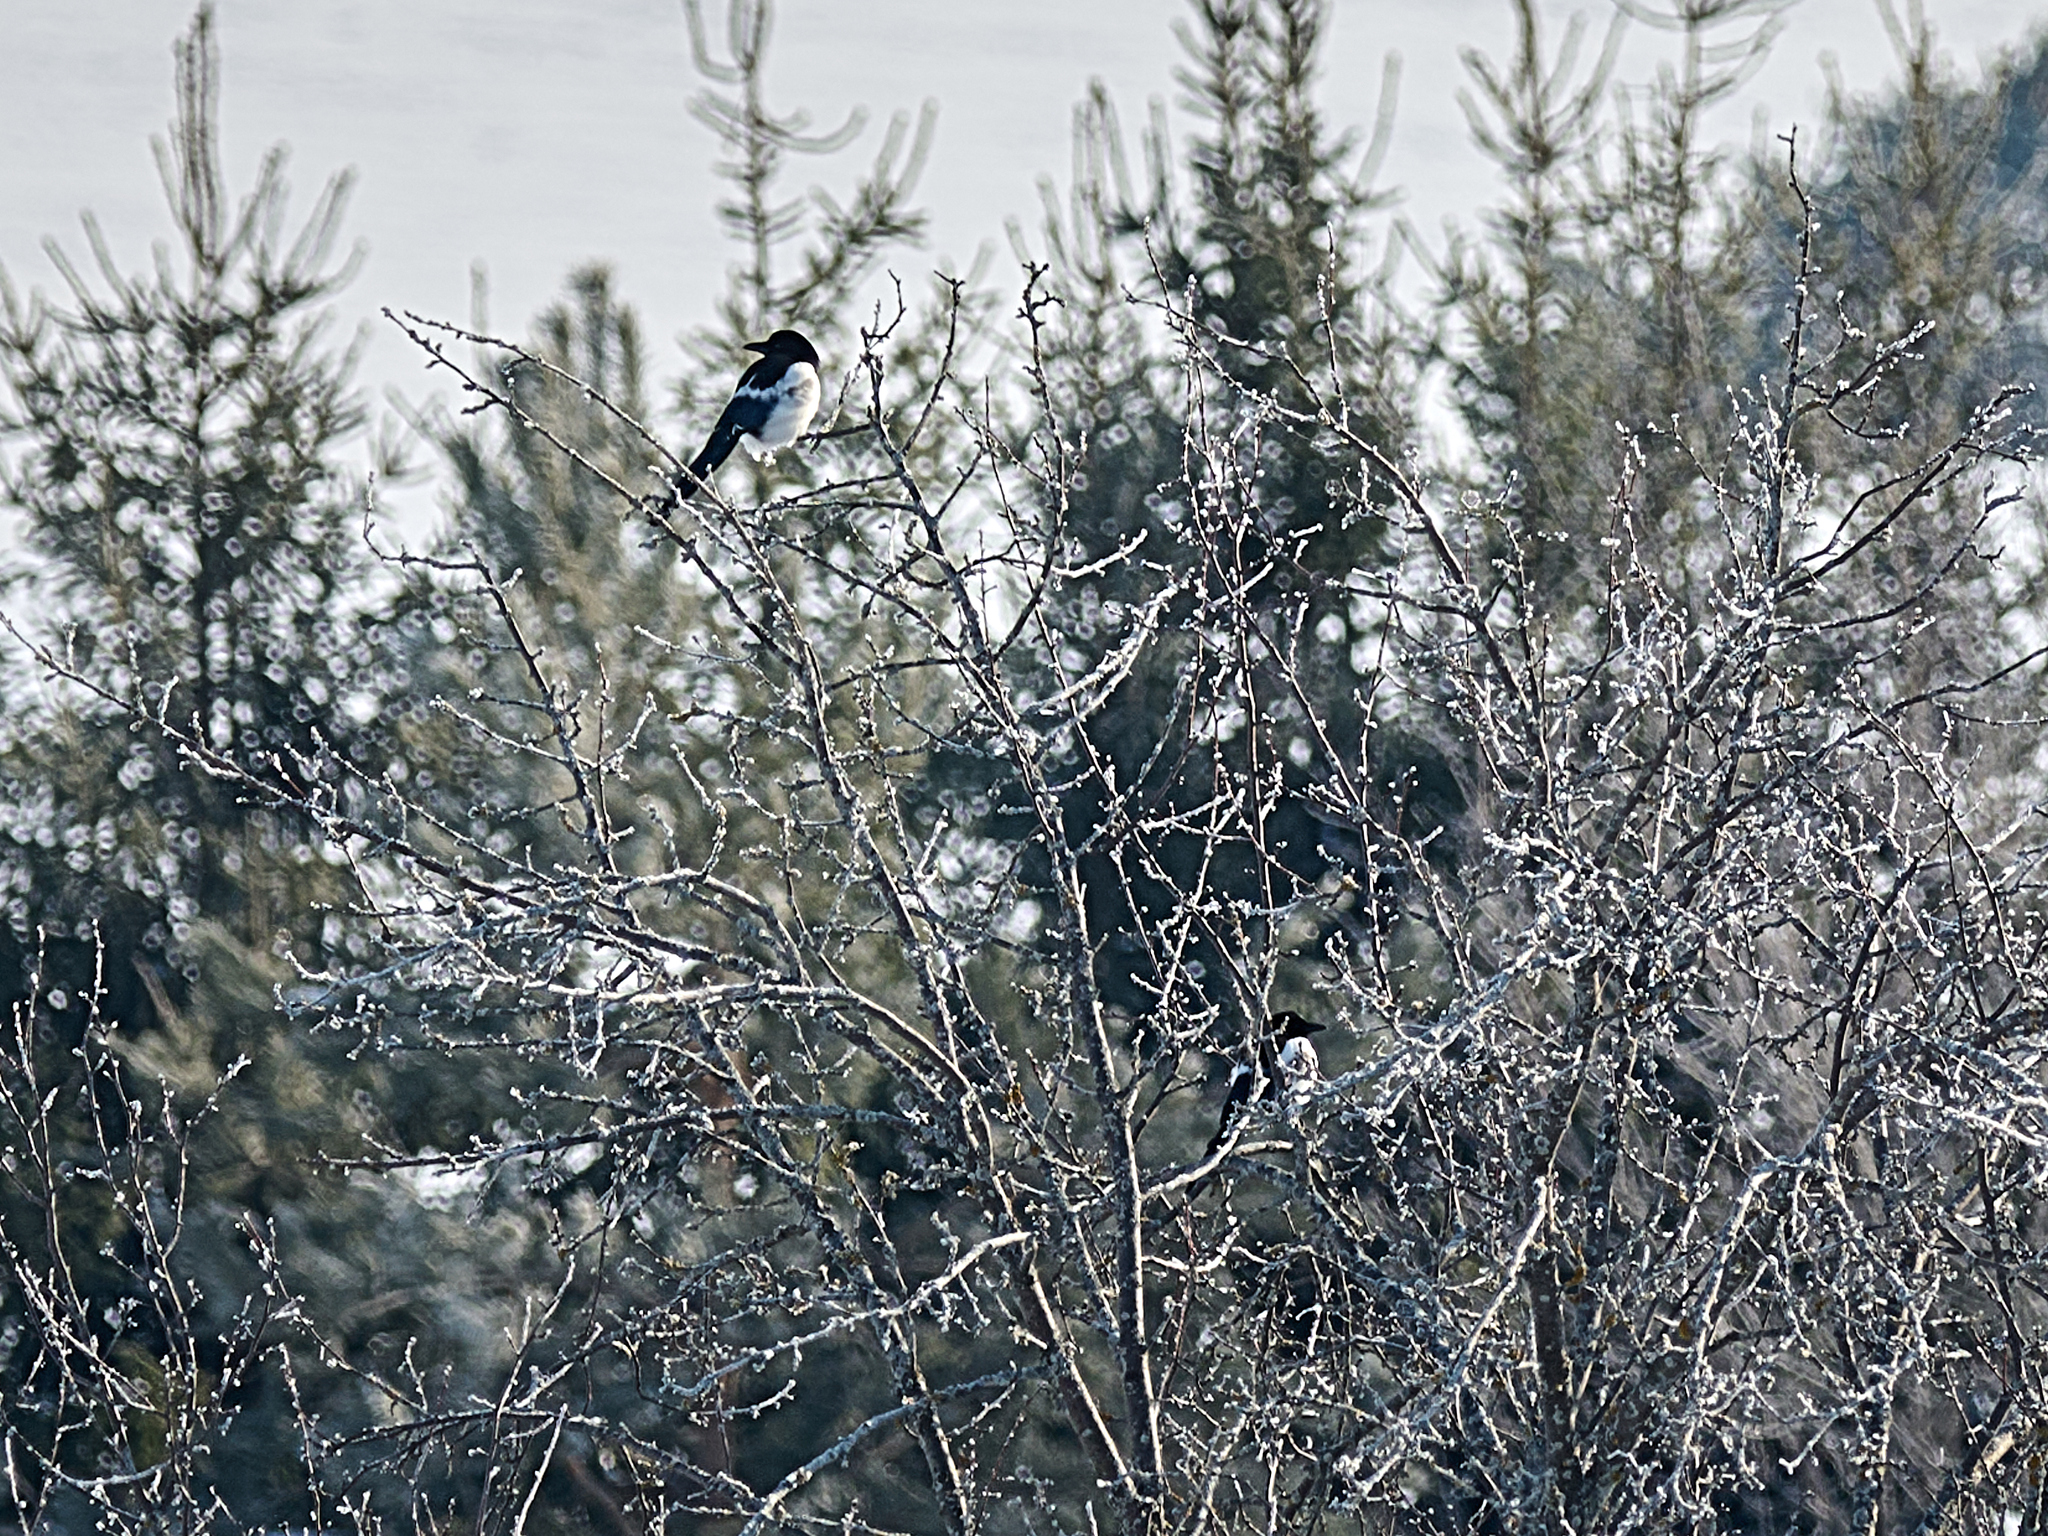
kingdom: Animalia
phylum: Chordata
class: Aves
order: Passeriformes
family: Corvidae
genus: Pica
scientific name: Pica pica
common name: Eurasian magpie
